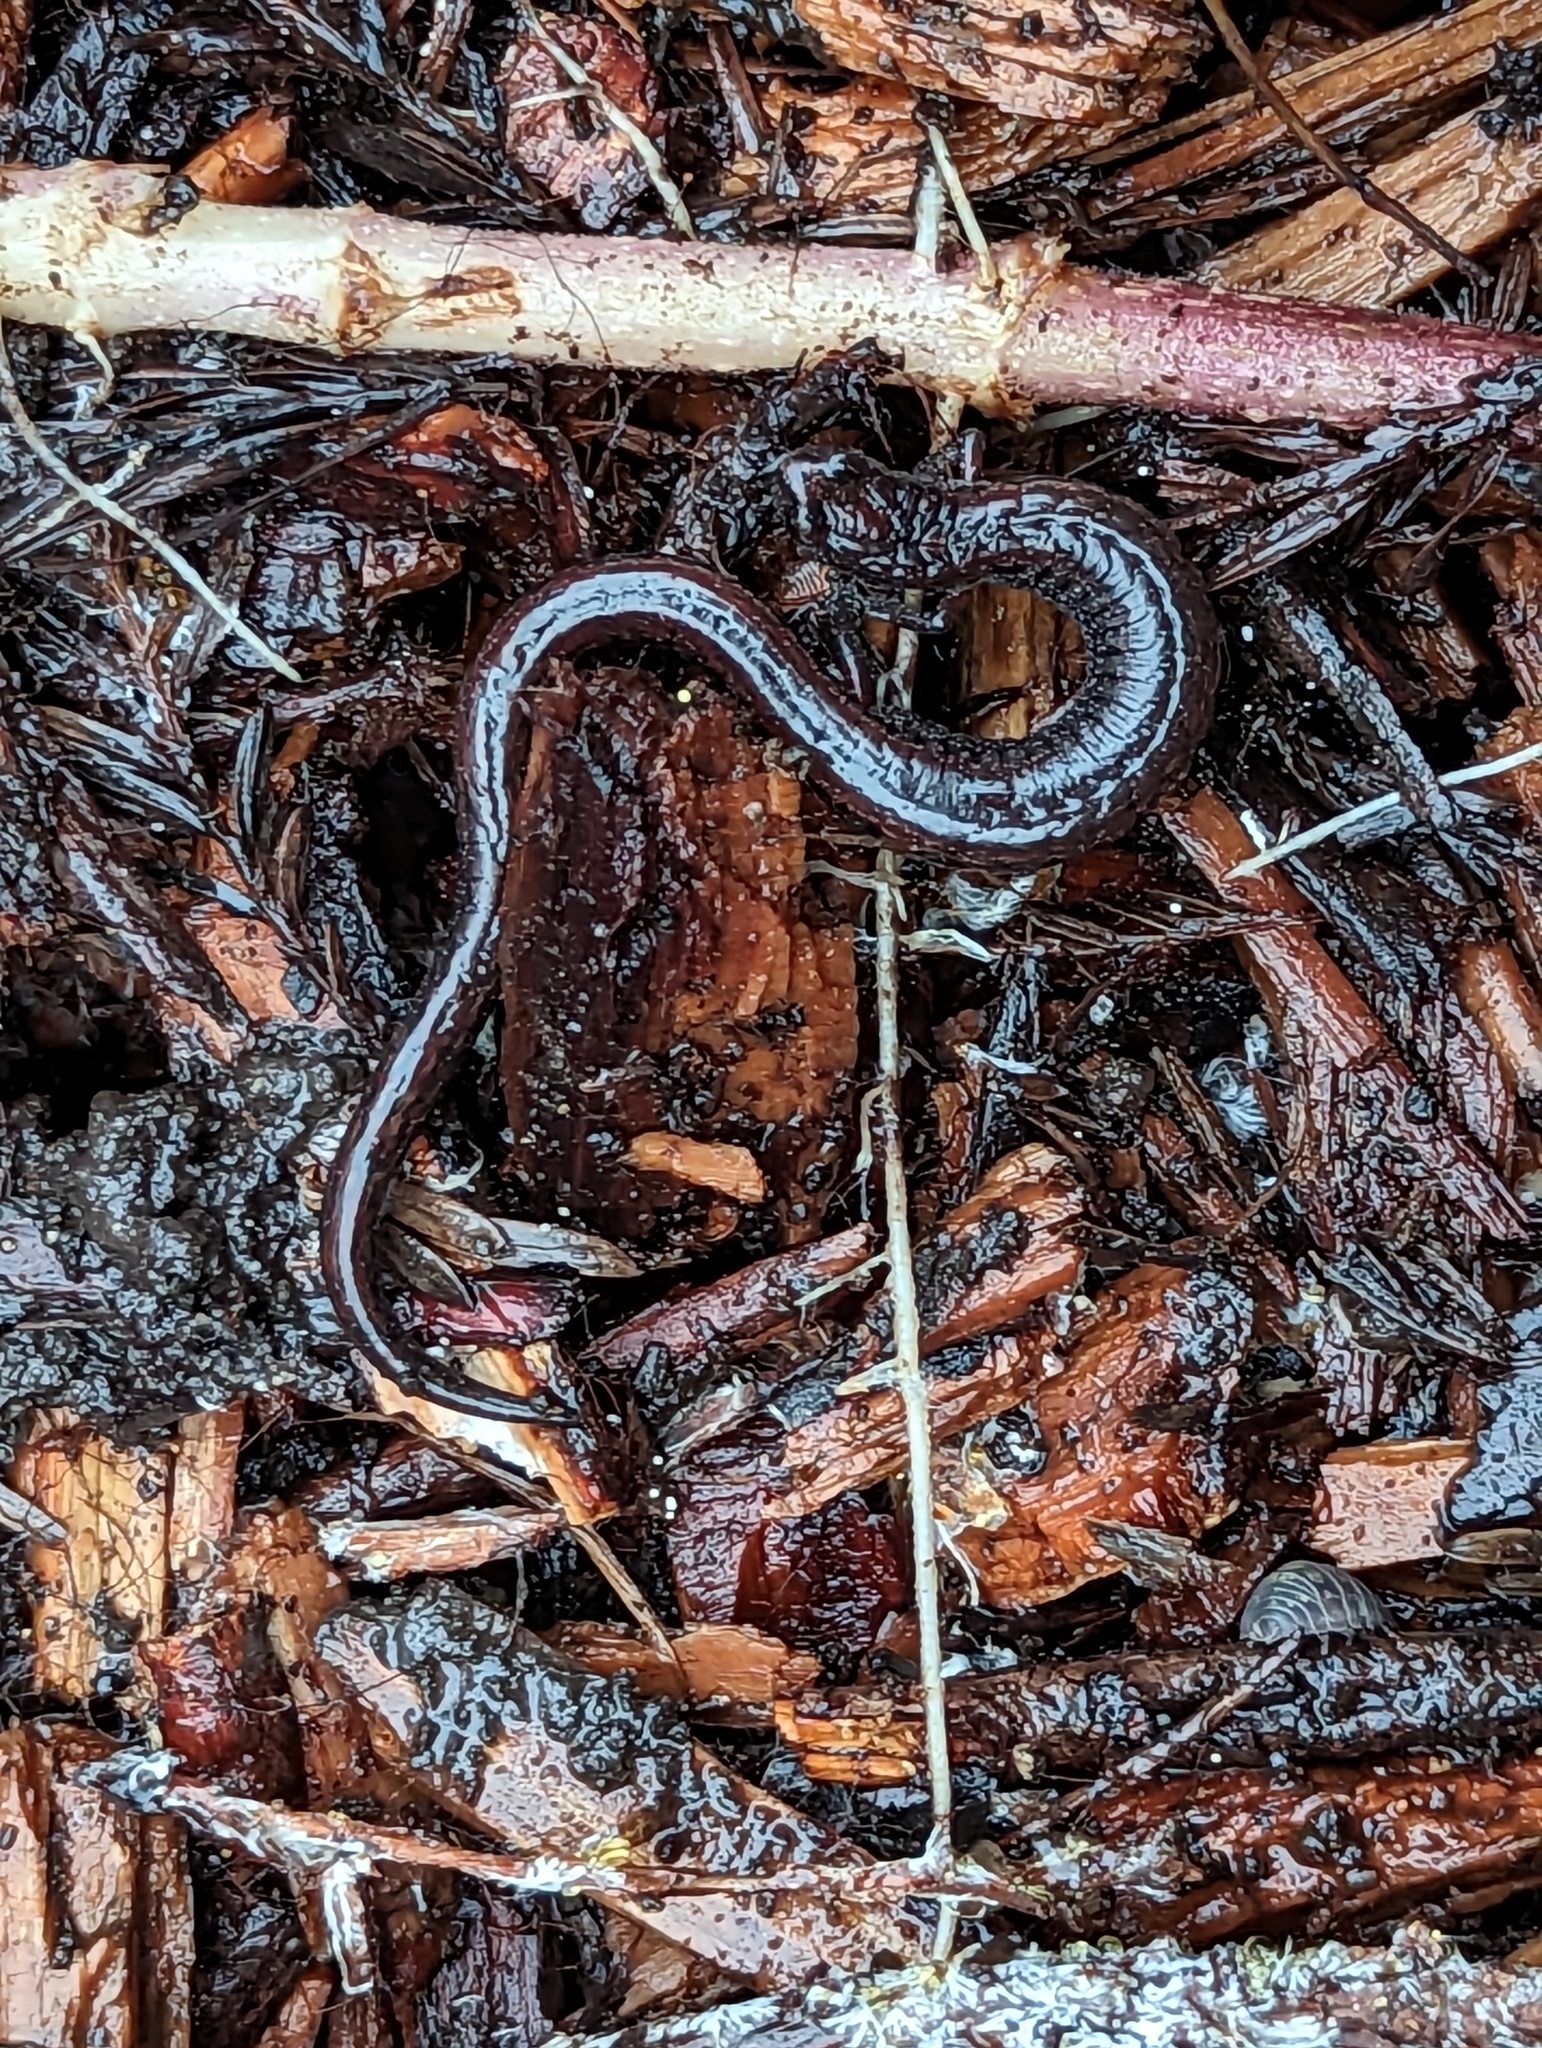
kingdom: Animalia
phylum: Chordata
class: Amphibia
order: Caudata
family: Plethodontidae
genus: Batrachoseps
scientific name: Batrachoseps attenuatus
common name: California slender salamander
